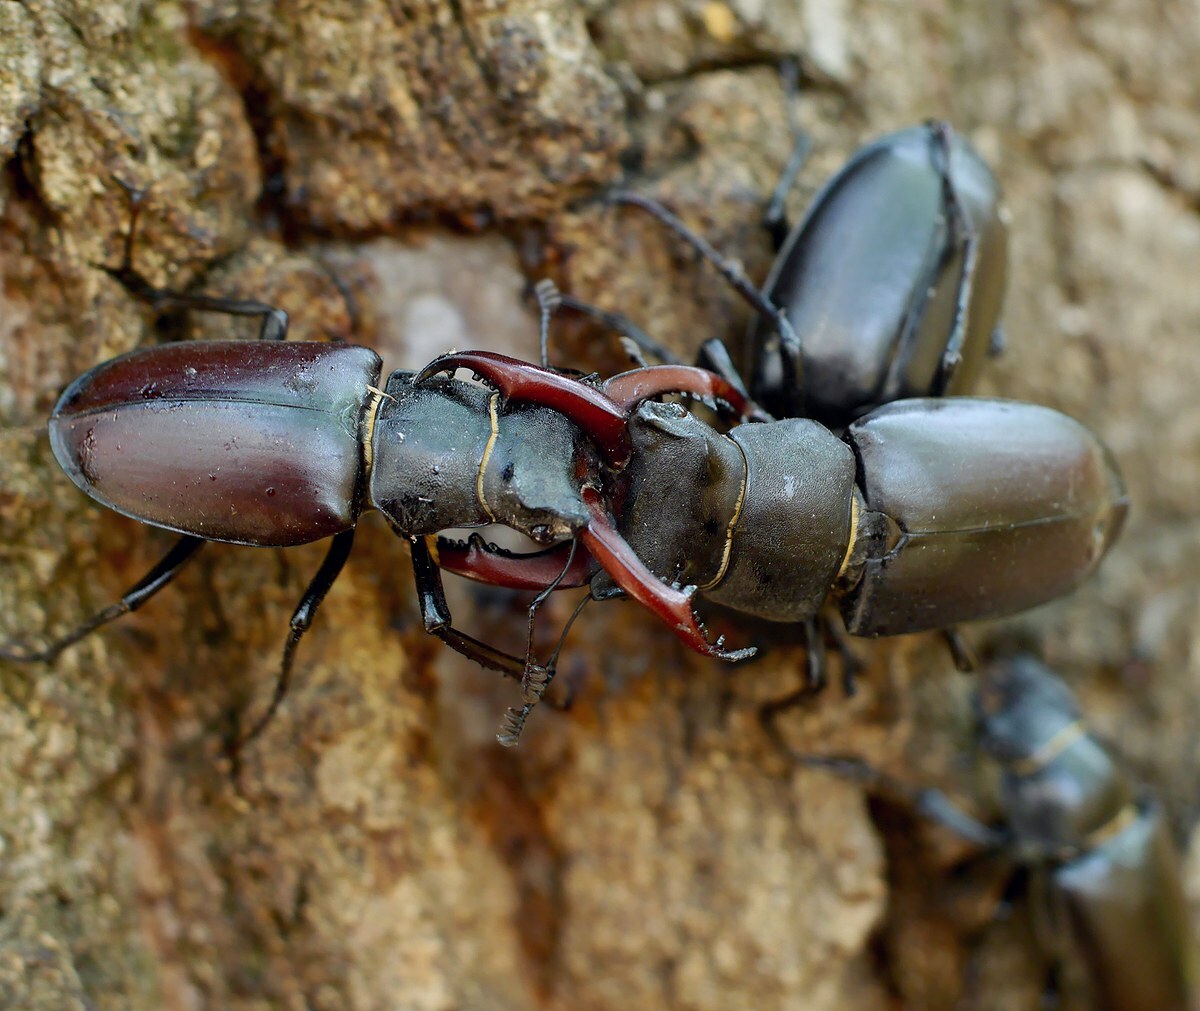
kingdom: Animalia
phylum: Arthropoda
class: Insecta
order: Coleoptera
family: Lucanidae
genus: Lucanus
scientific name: Lucanus cervus
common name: Stag beetle
